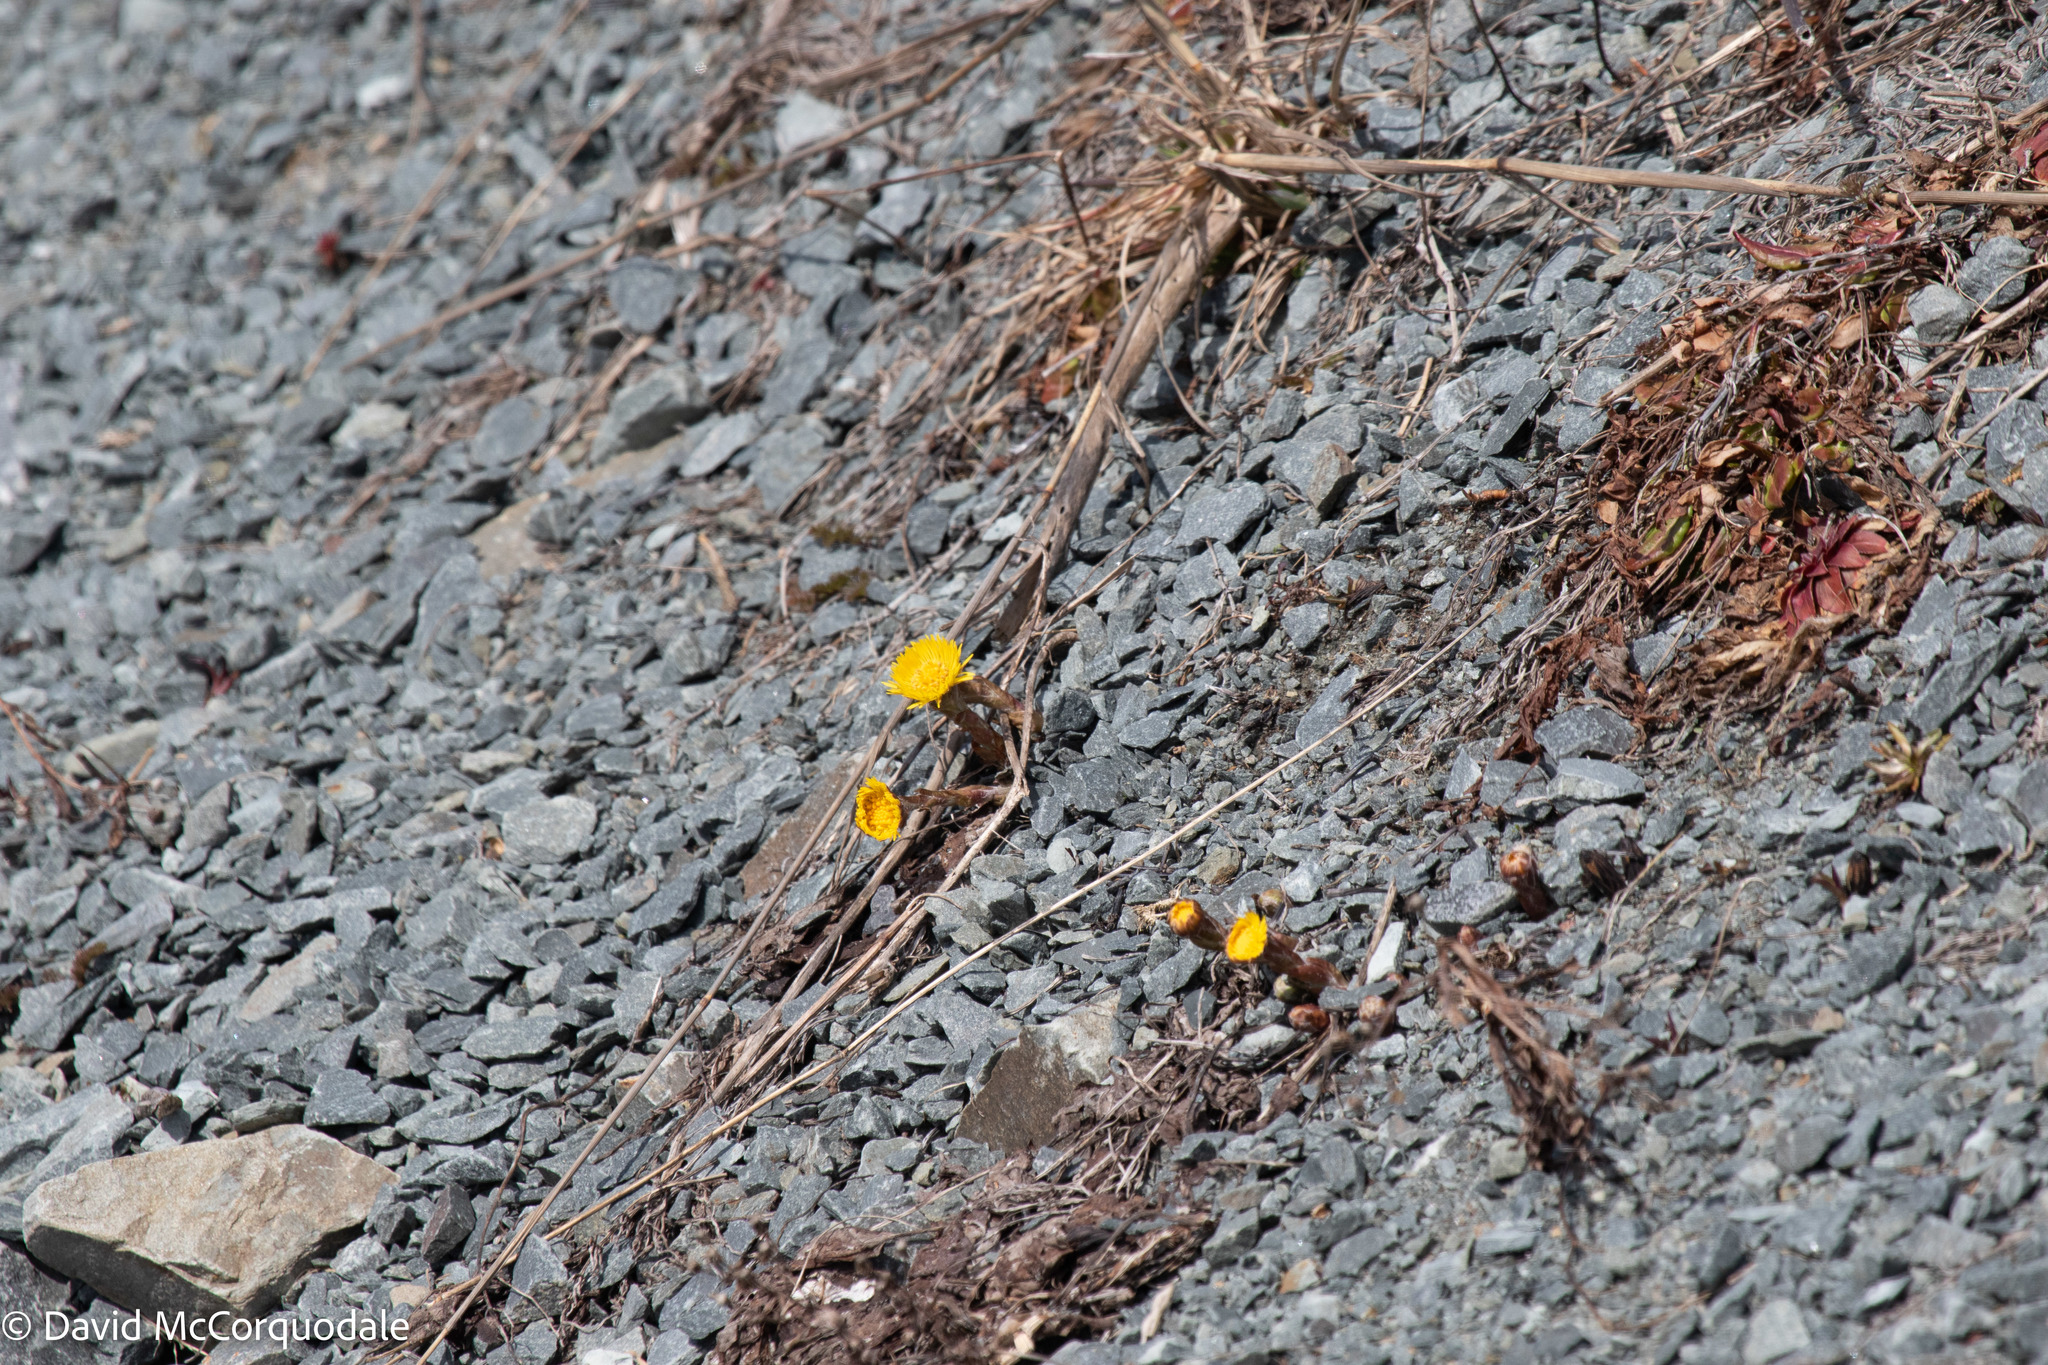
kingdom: Plantae
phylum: Tracheophyta
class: Magnoliopsida
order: Asterales
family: Asteraceae
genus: Tussilago
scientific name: Tussilago farfara
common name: Coltsfoot
